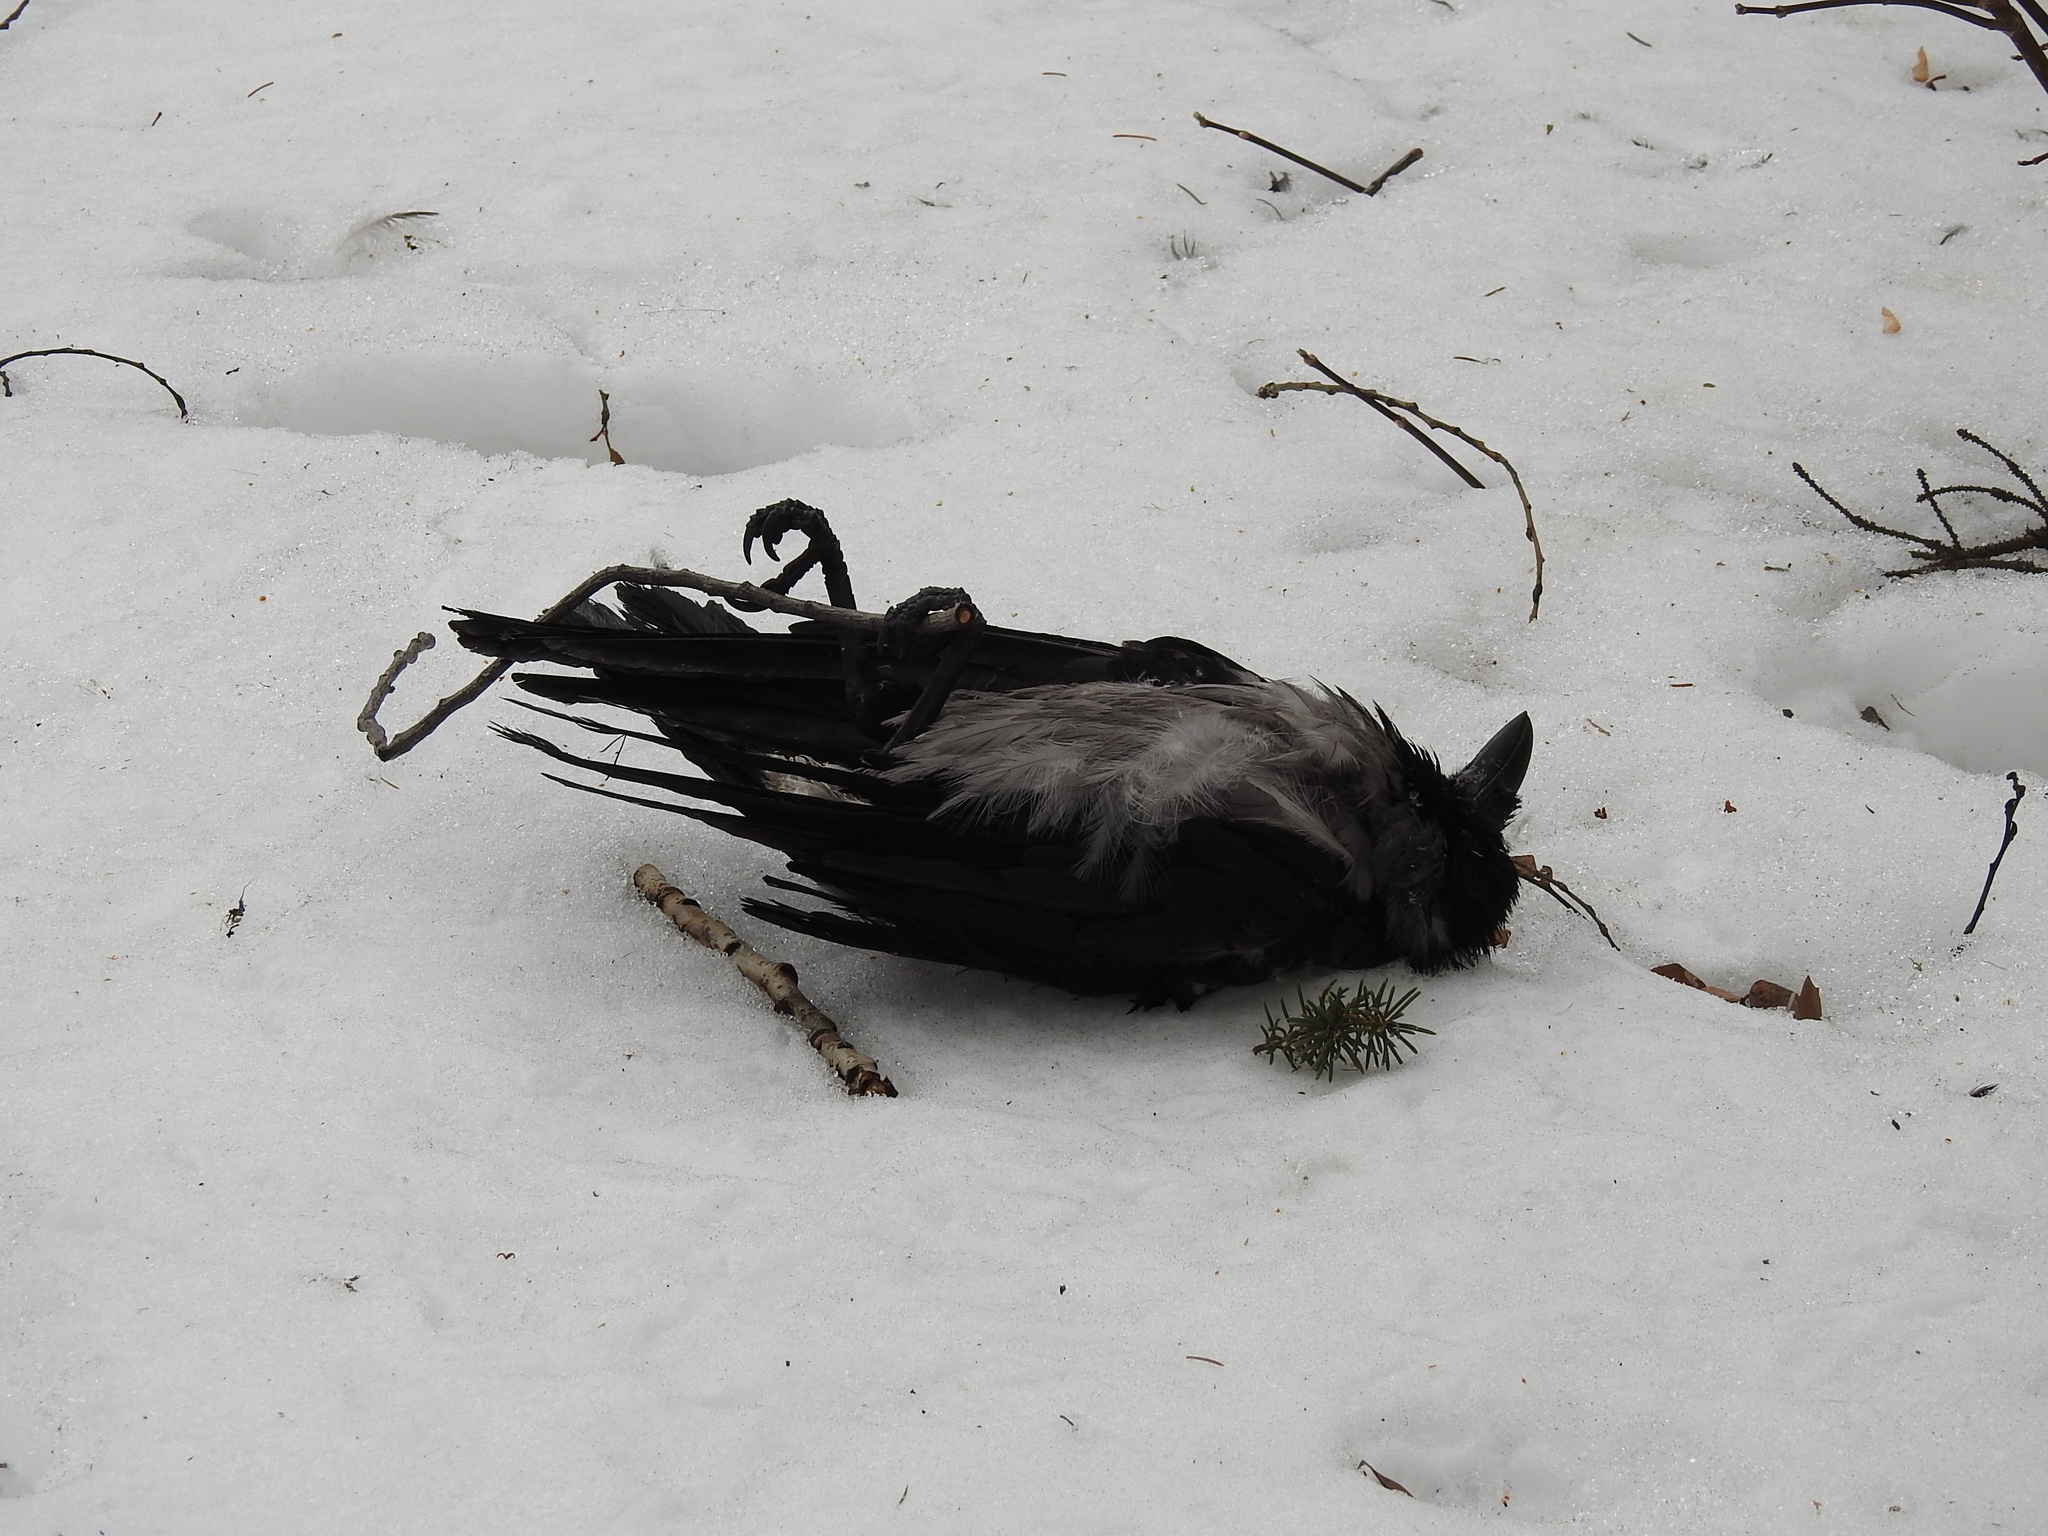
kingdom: Animalia
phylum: Chordata
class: Aves
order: Passeriformes
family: Corvidae
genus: Corvus
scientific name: Corvus cornix
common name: Hooded crow
